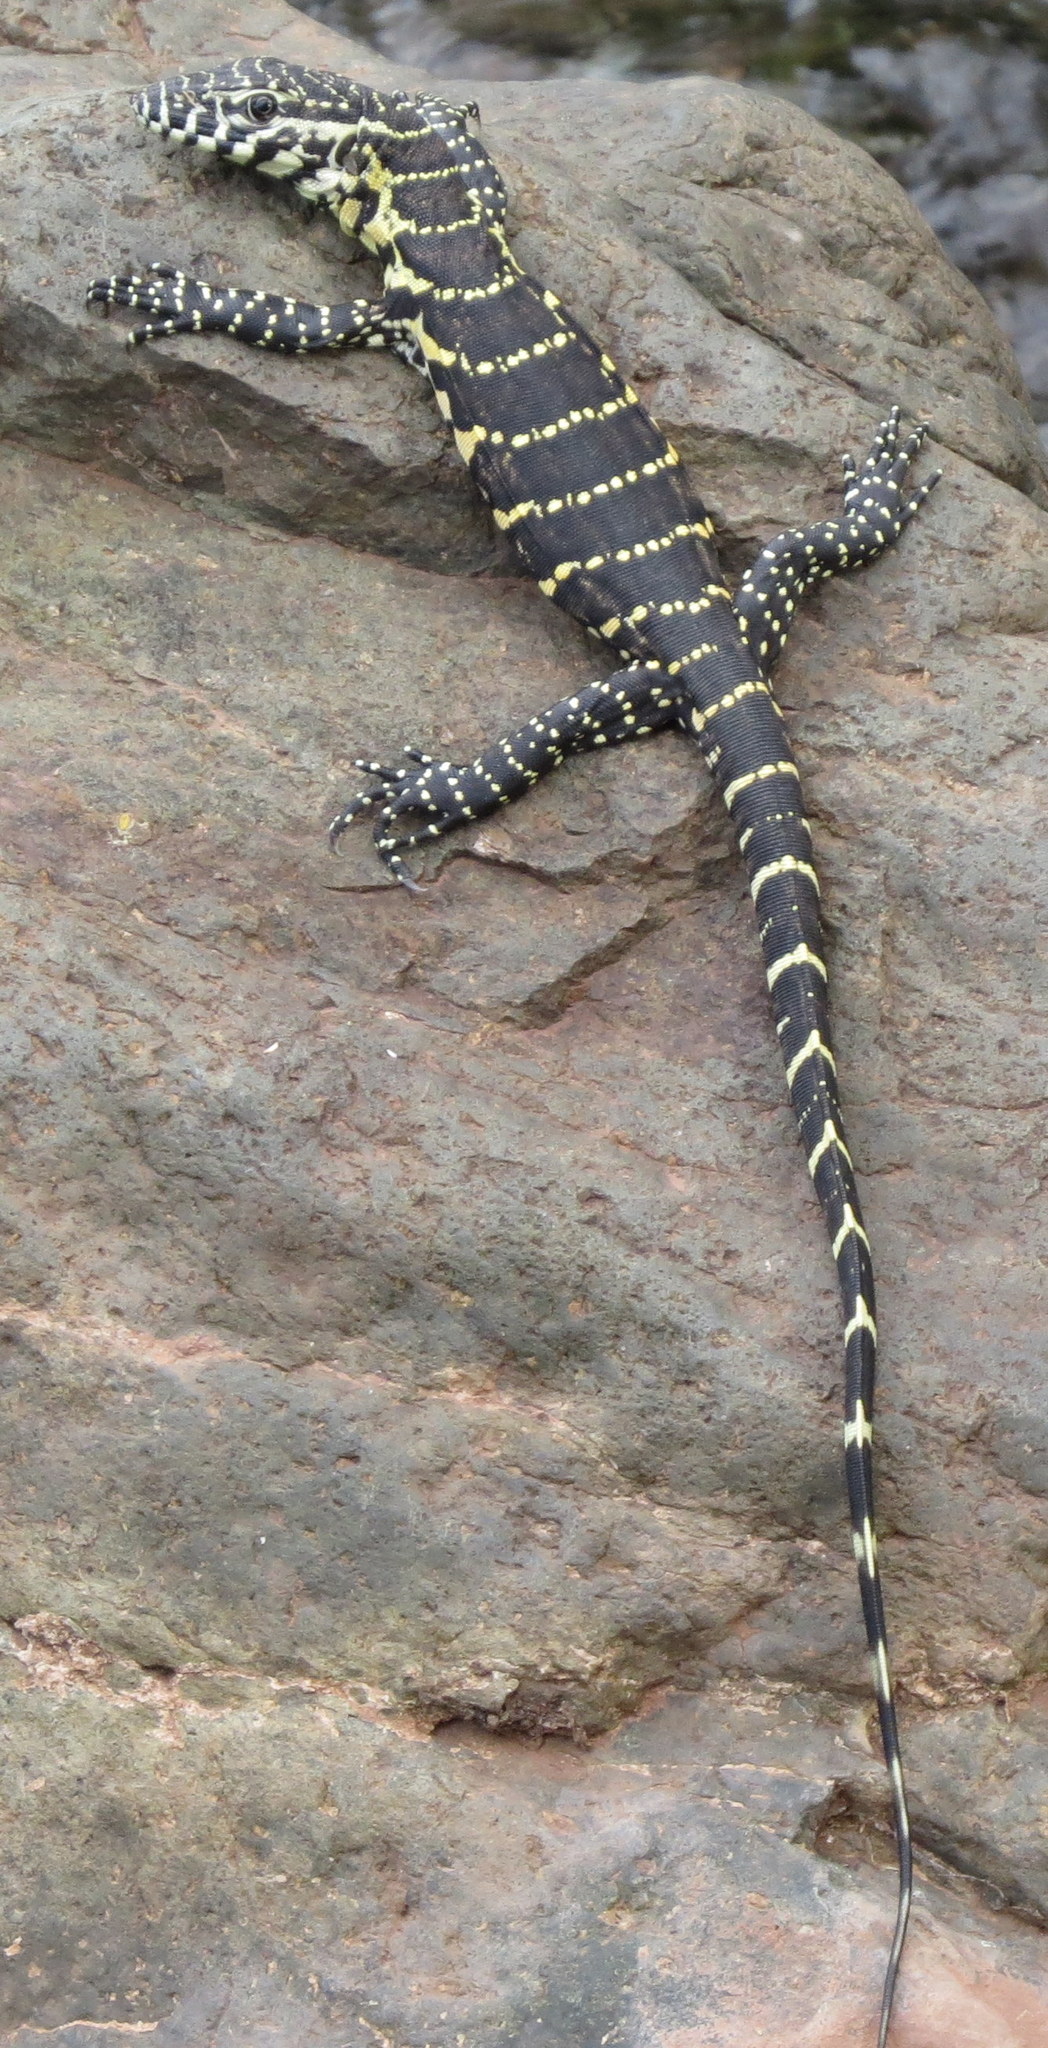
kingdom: Animalia
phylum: Chordata
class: Squamata
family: Varanidae
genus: Varanus
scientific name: Varanus niloticus
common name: Nile monitor
